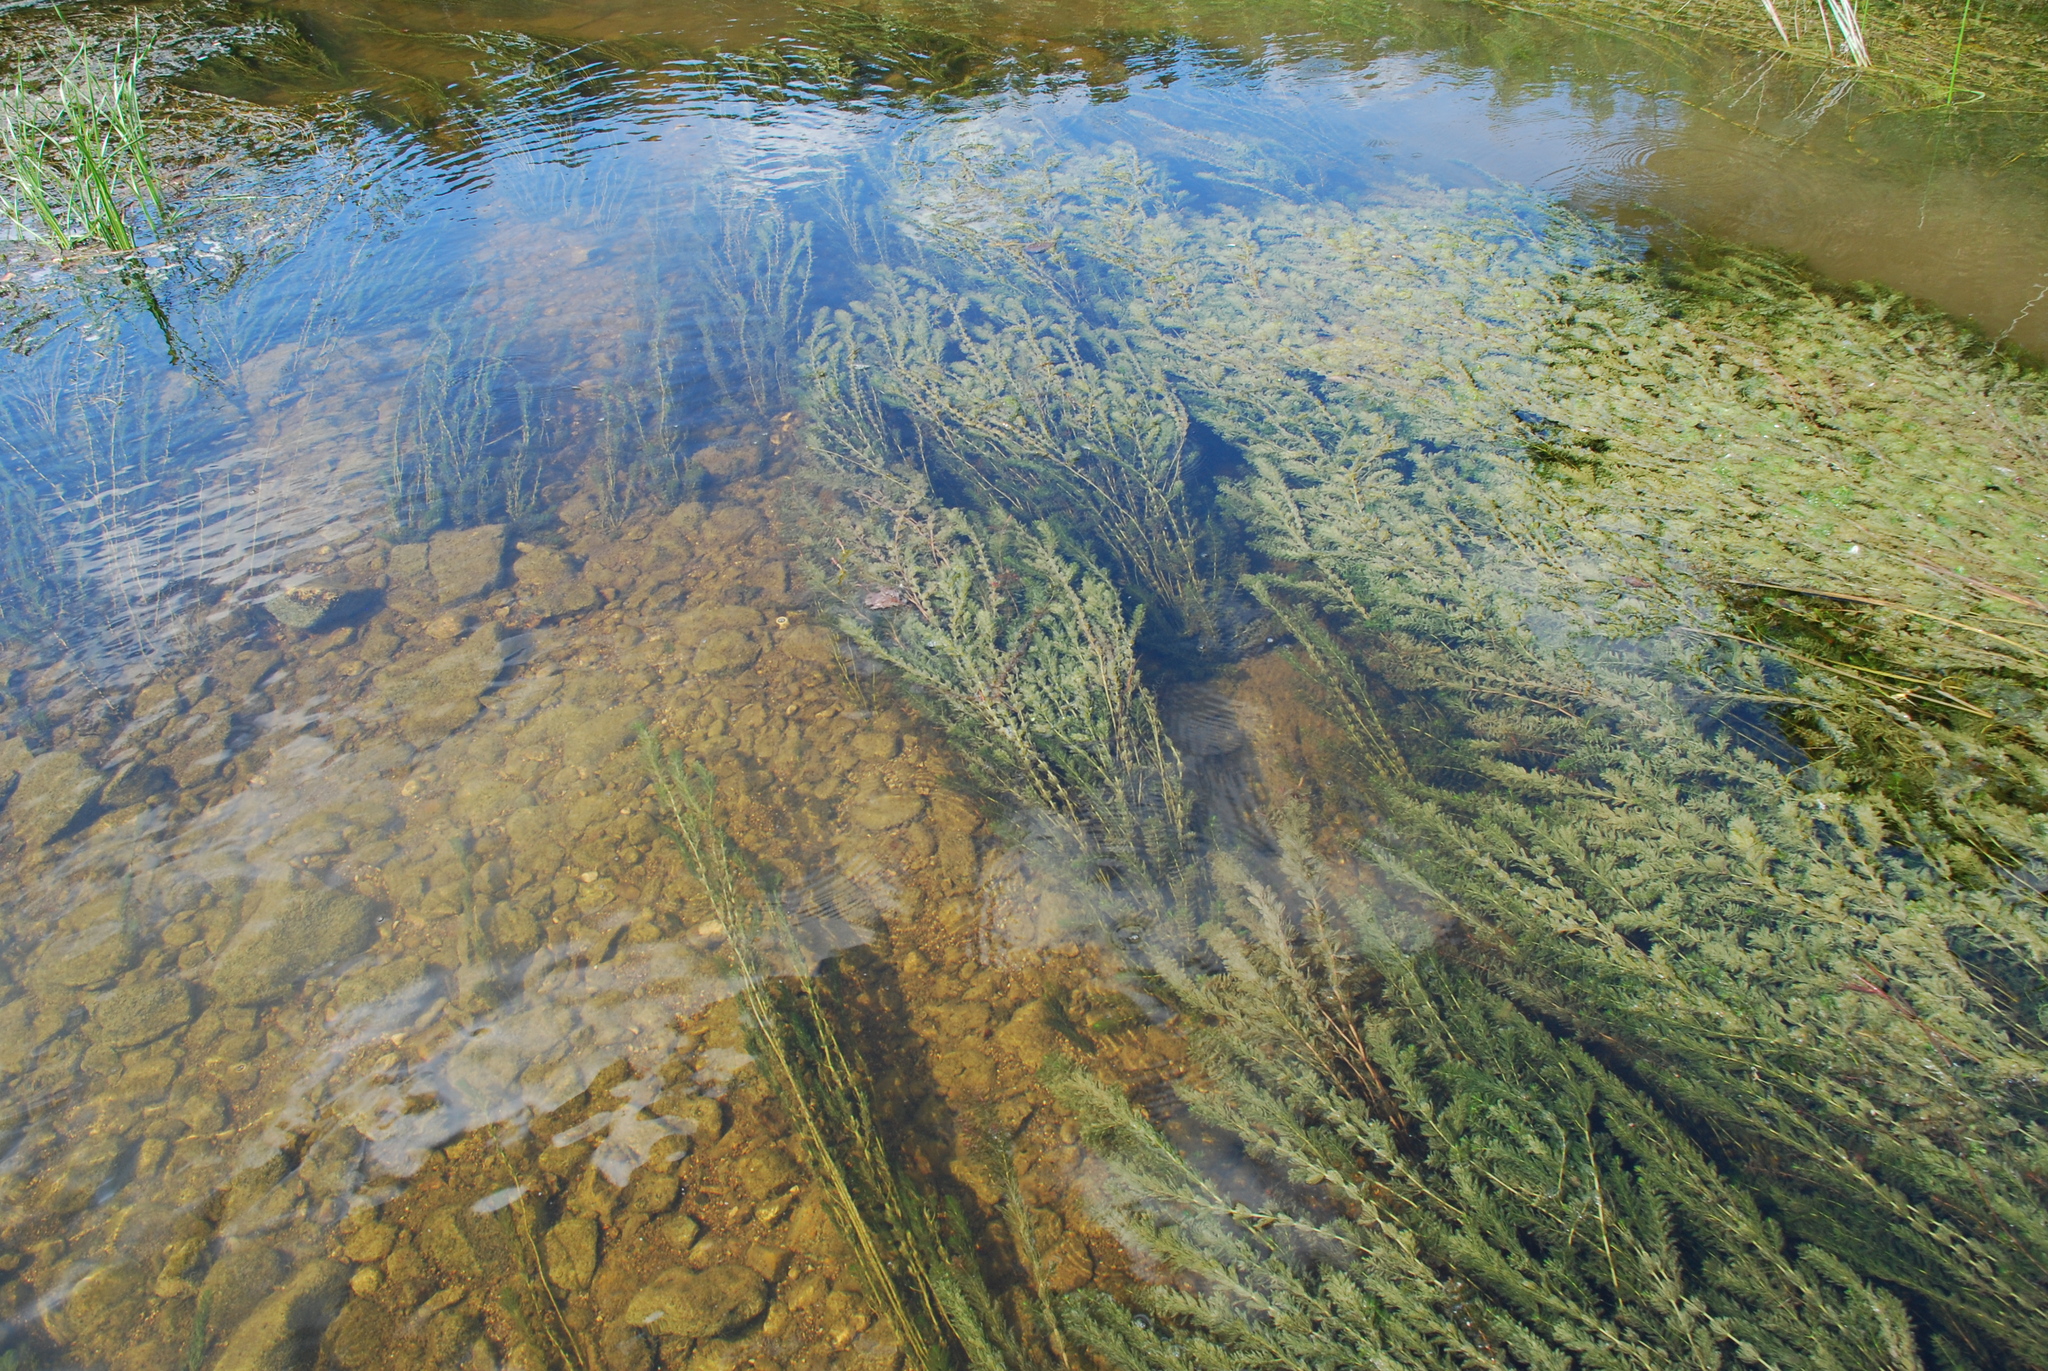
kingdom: Plantae
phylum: Tracheophyta
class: Magnoliopsida
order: Saxifragales
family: Haloragaceae
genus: Myriophyllum
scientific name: Myriophyllum spicatum
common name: Spiked water-milfoil
